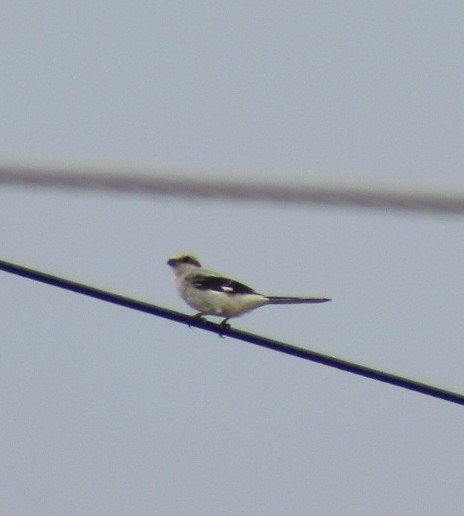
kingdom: Animalia
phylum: Chordata
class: Aves
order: Passeriformes
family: Laniidae
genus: Lanius
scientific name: Lanius excubitor
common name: Great grey shrike
